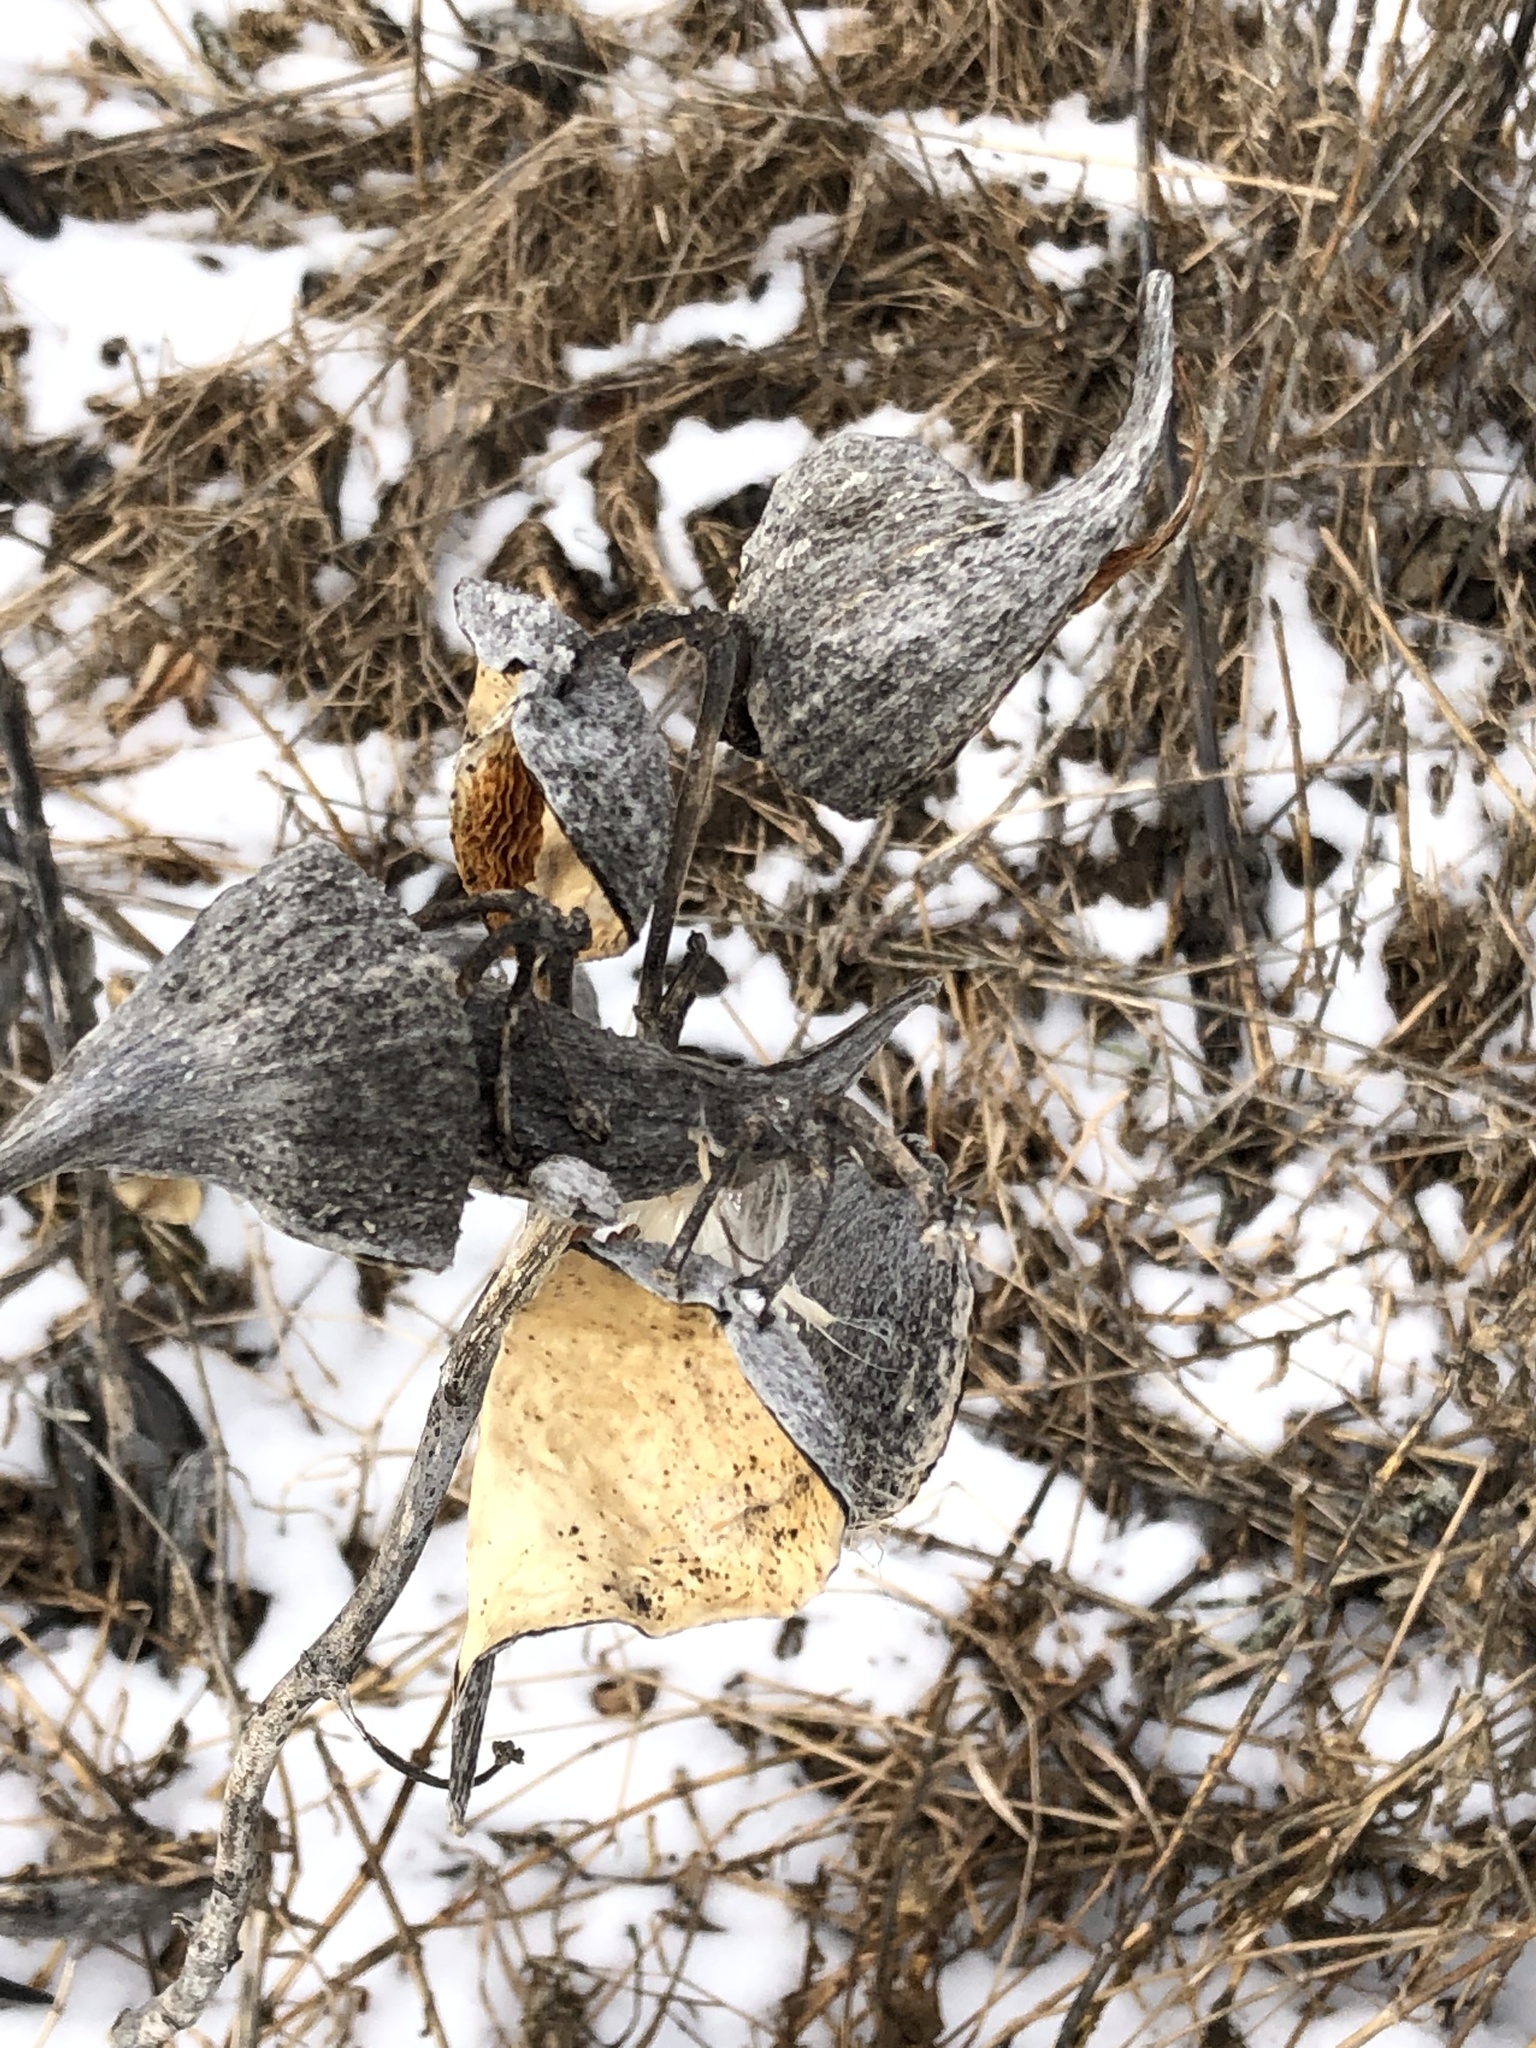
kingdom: Plantae
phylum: Tracheophyta
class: Magnoliopsida
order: Gentianales
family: Apocynaceae
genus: Asclepias
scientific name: Asclepias syriaca
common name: Common milkweed
